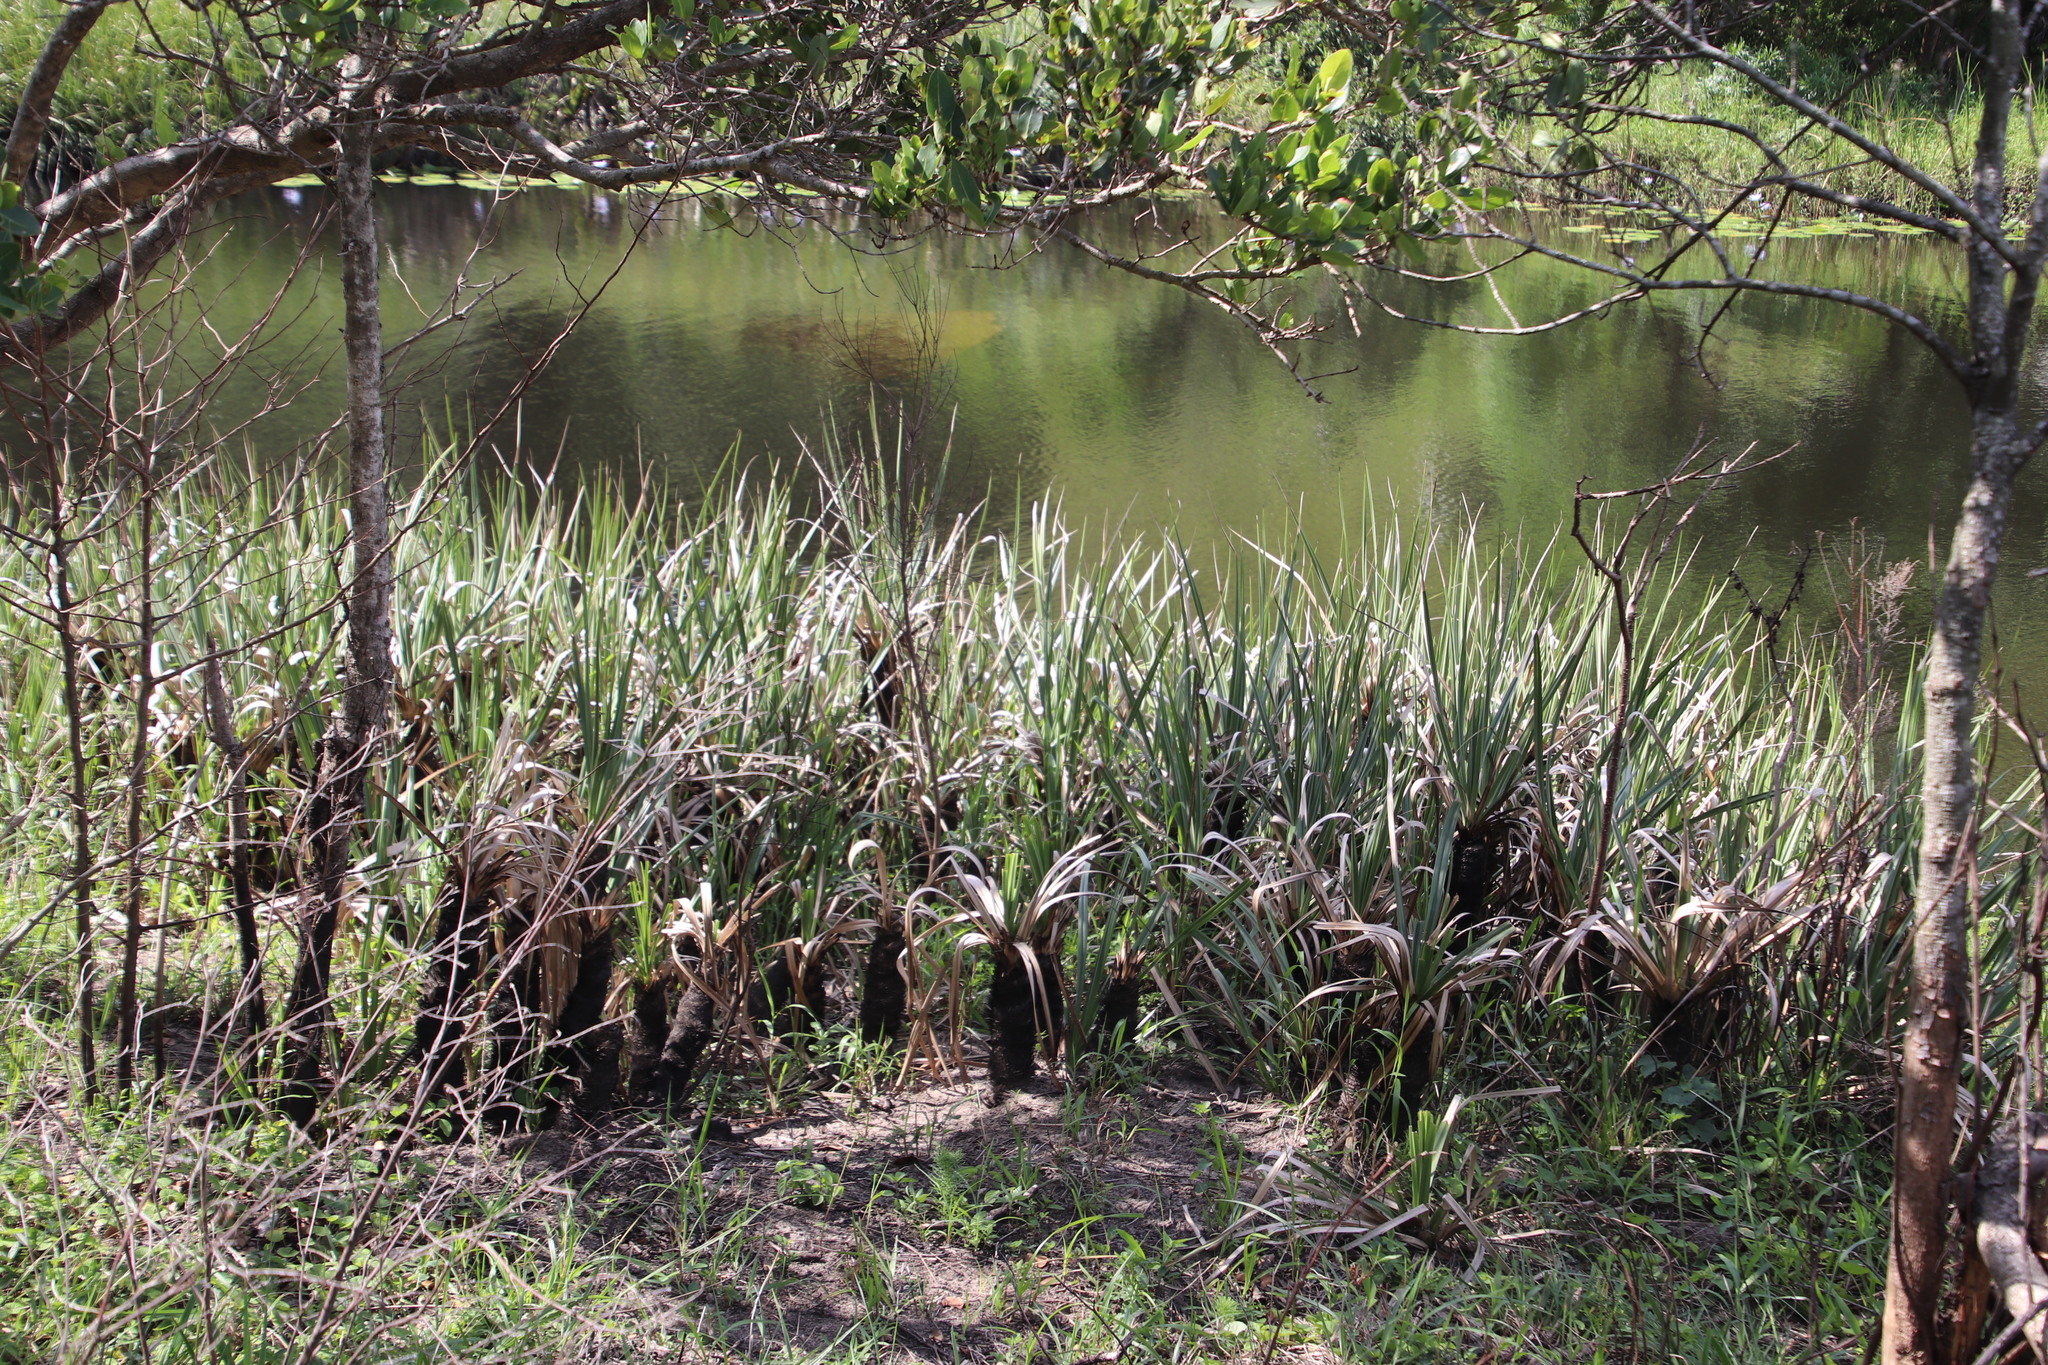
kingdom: Plantae
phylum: Tracheophyta
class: Liliopsida
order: Poales
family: Thurniaceae
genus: Prionium
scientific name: Prionium serratum
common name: Palmiet
